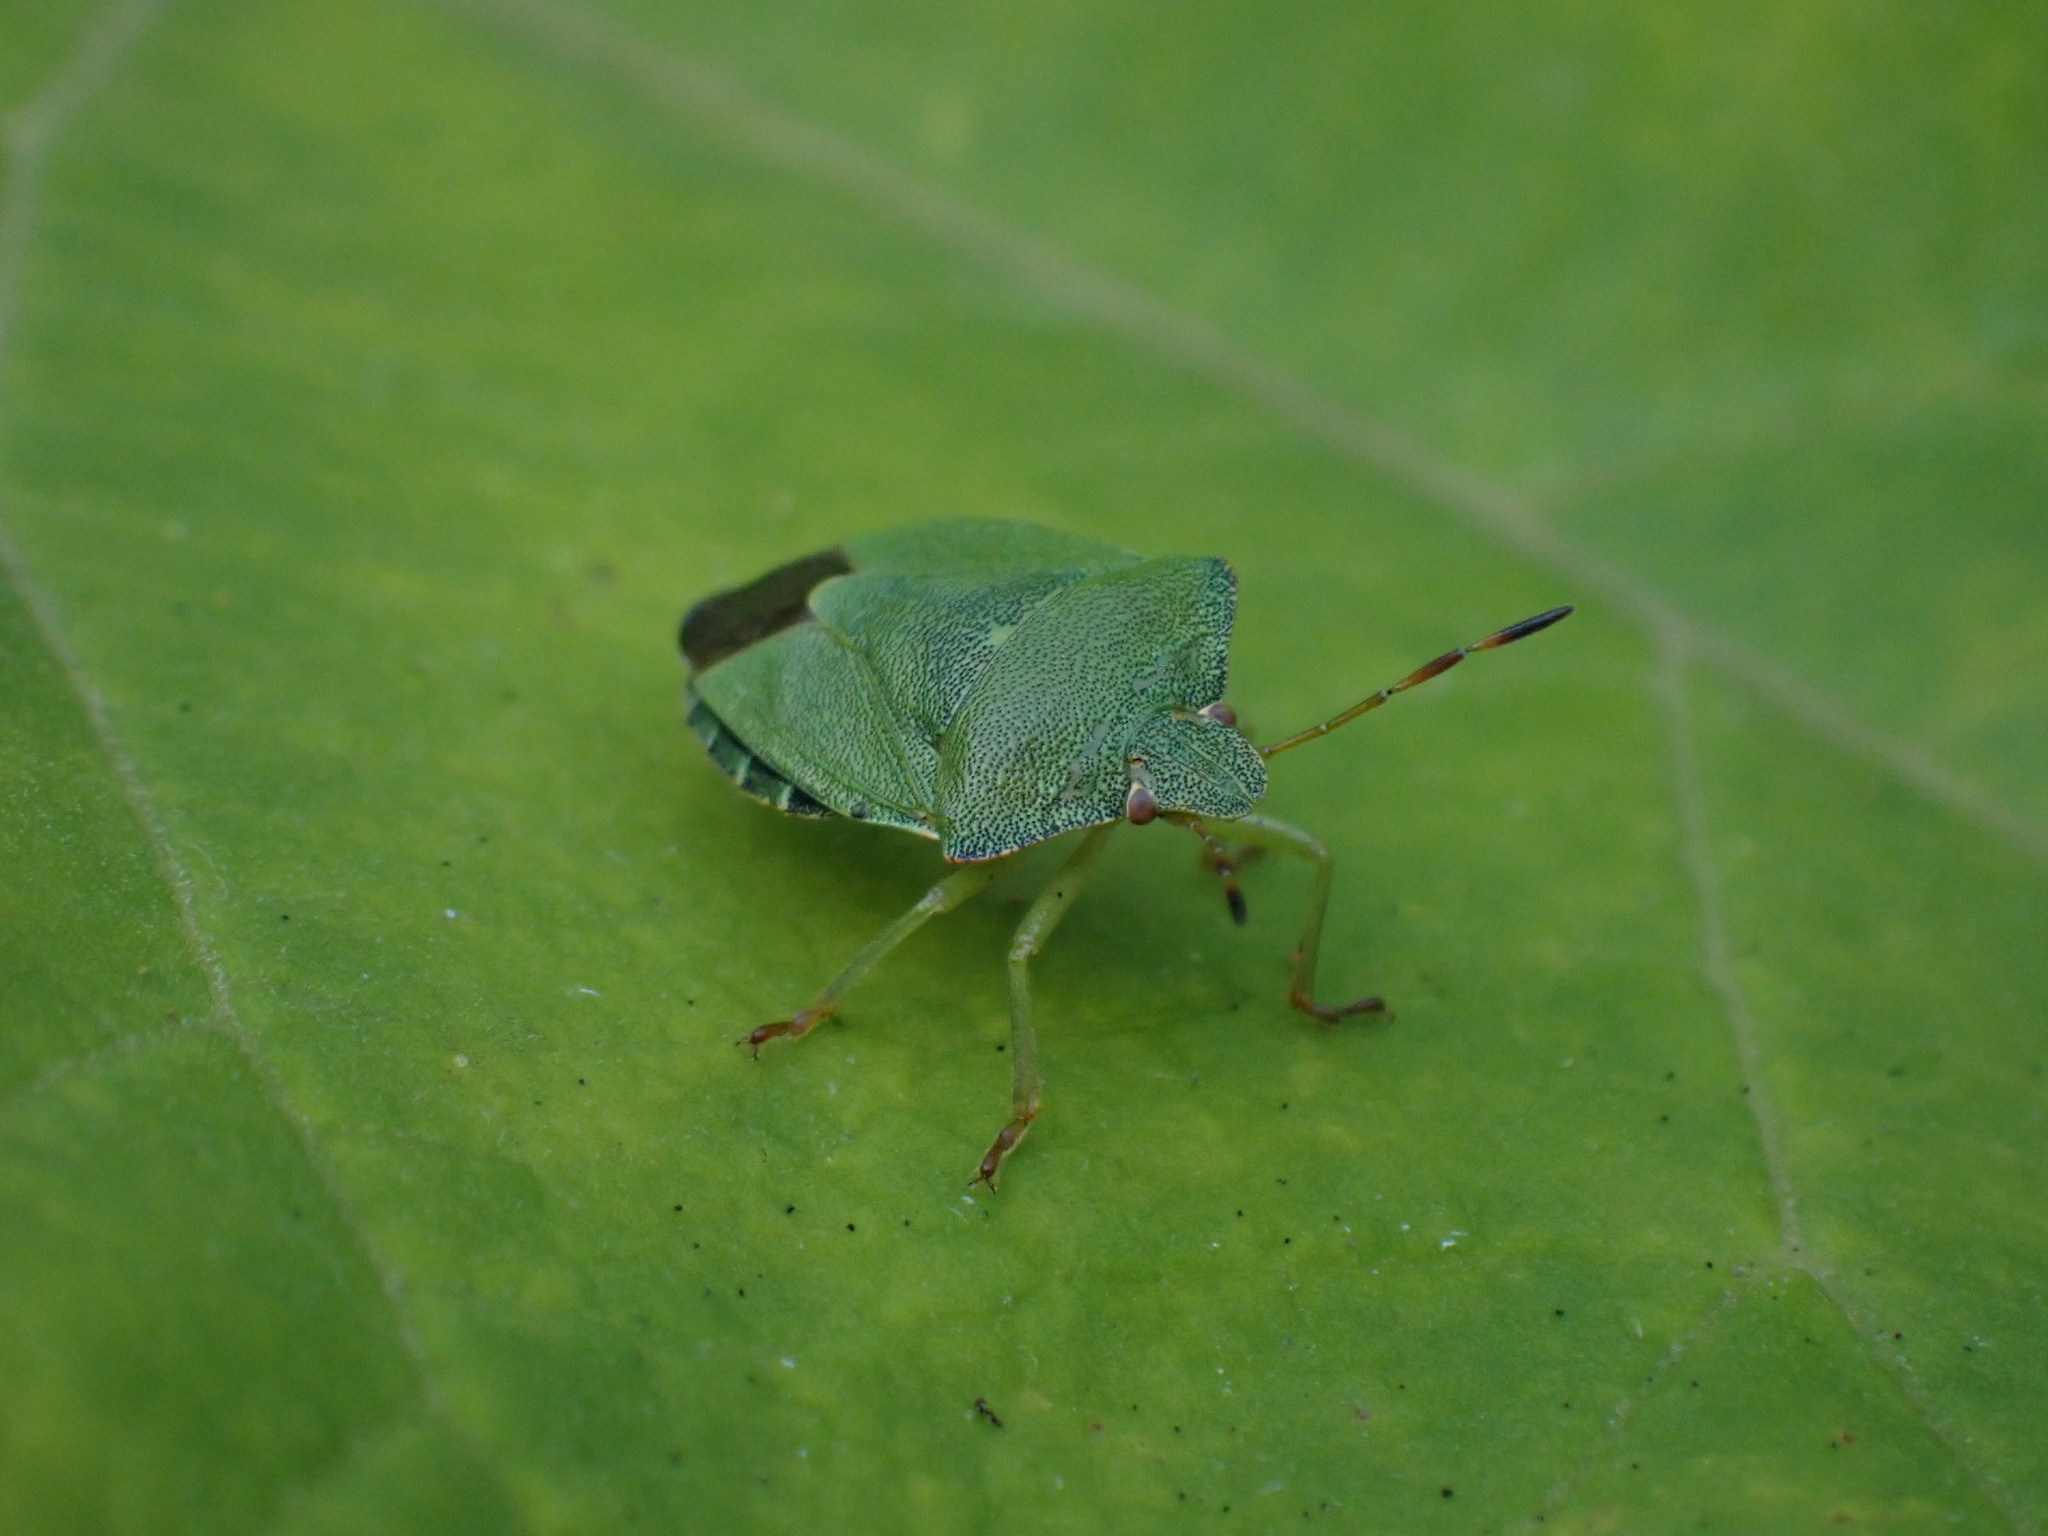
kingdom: Animalia
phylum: Arthropoda
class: Insecta
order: Hemiptera
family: Pentatomidae
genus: Palomena
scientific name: Palomena prasina
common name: Green shieldbug
